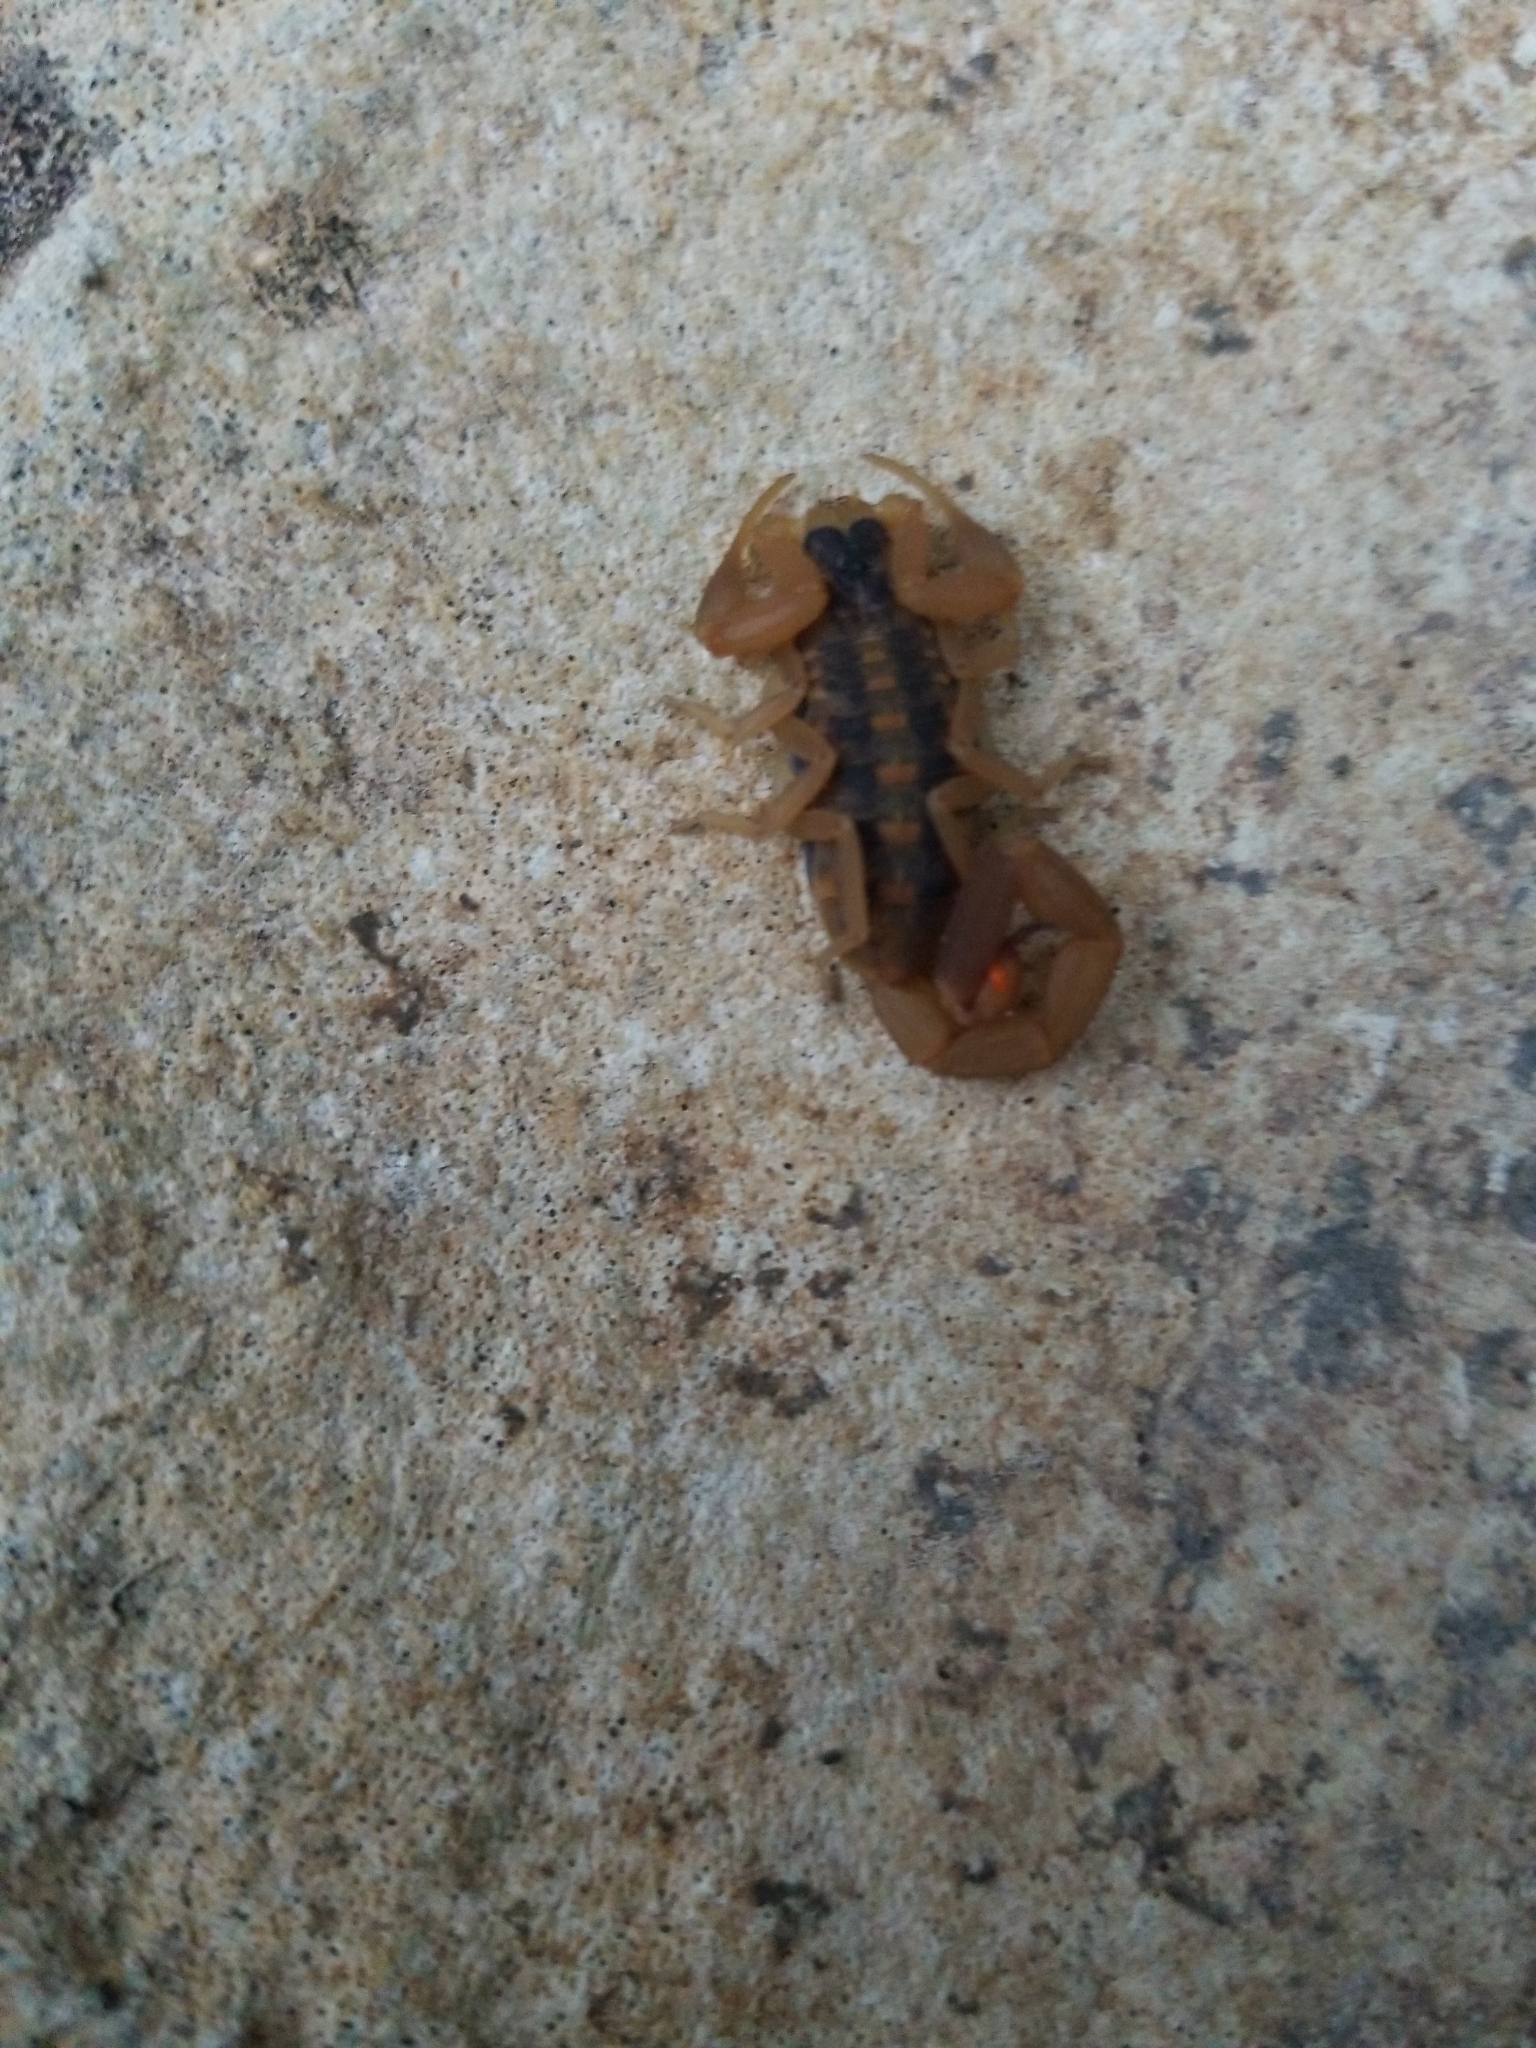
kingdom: Animalia
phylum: Arthropoda
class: Arachnida
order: Scorpiones
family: Buthidae
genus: Centruroides
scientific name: Centruroides vittatus
